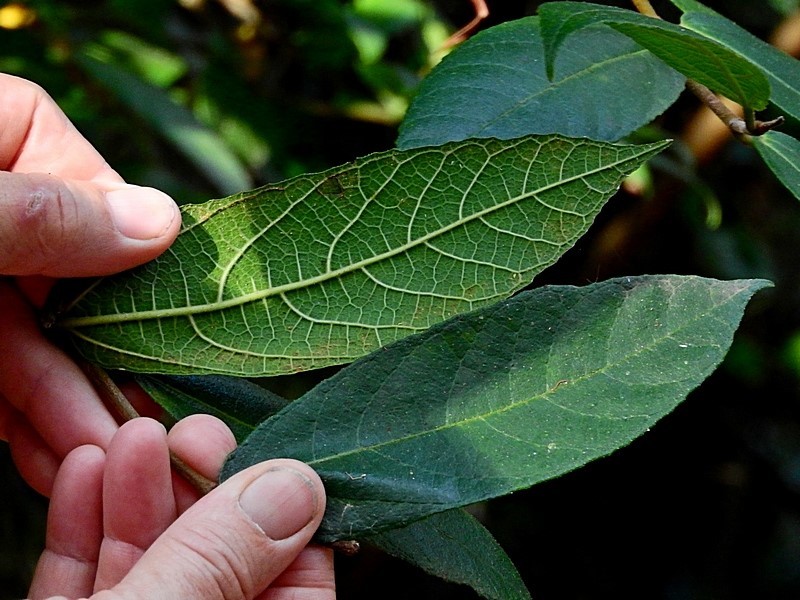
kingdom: Plantae
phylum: Tracheophyta
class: Magnoliopsida
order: Rosales
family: Moraceae
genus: Ficus
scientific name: Ficus coronata
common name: Creek sandpaper fig
